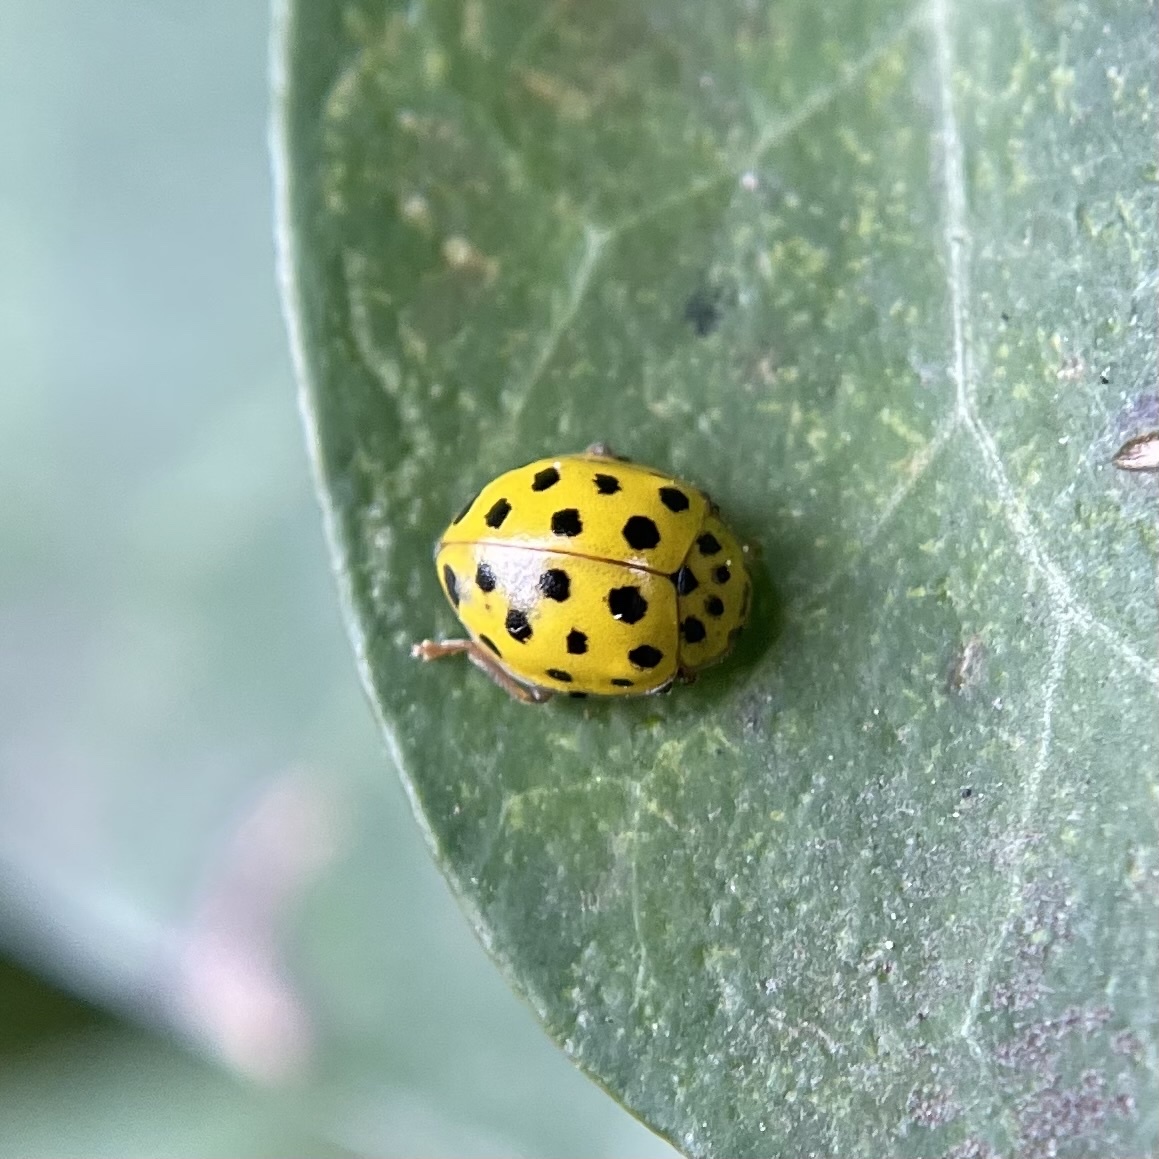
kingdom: Animalia
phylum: Arthropoda
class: Insecta
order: Coleoptera
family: Coccinellidae
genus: Psyllobora
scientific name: Psyllobora vigintiduopunctata
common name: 22-spot ladybird
